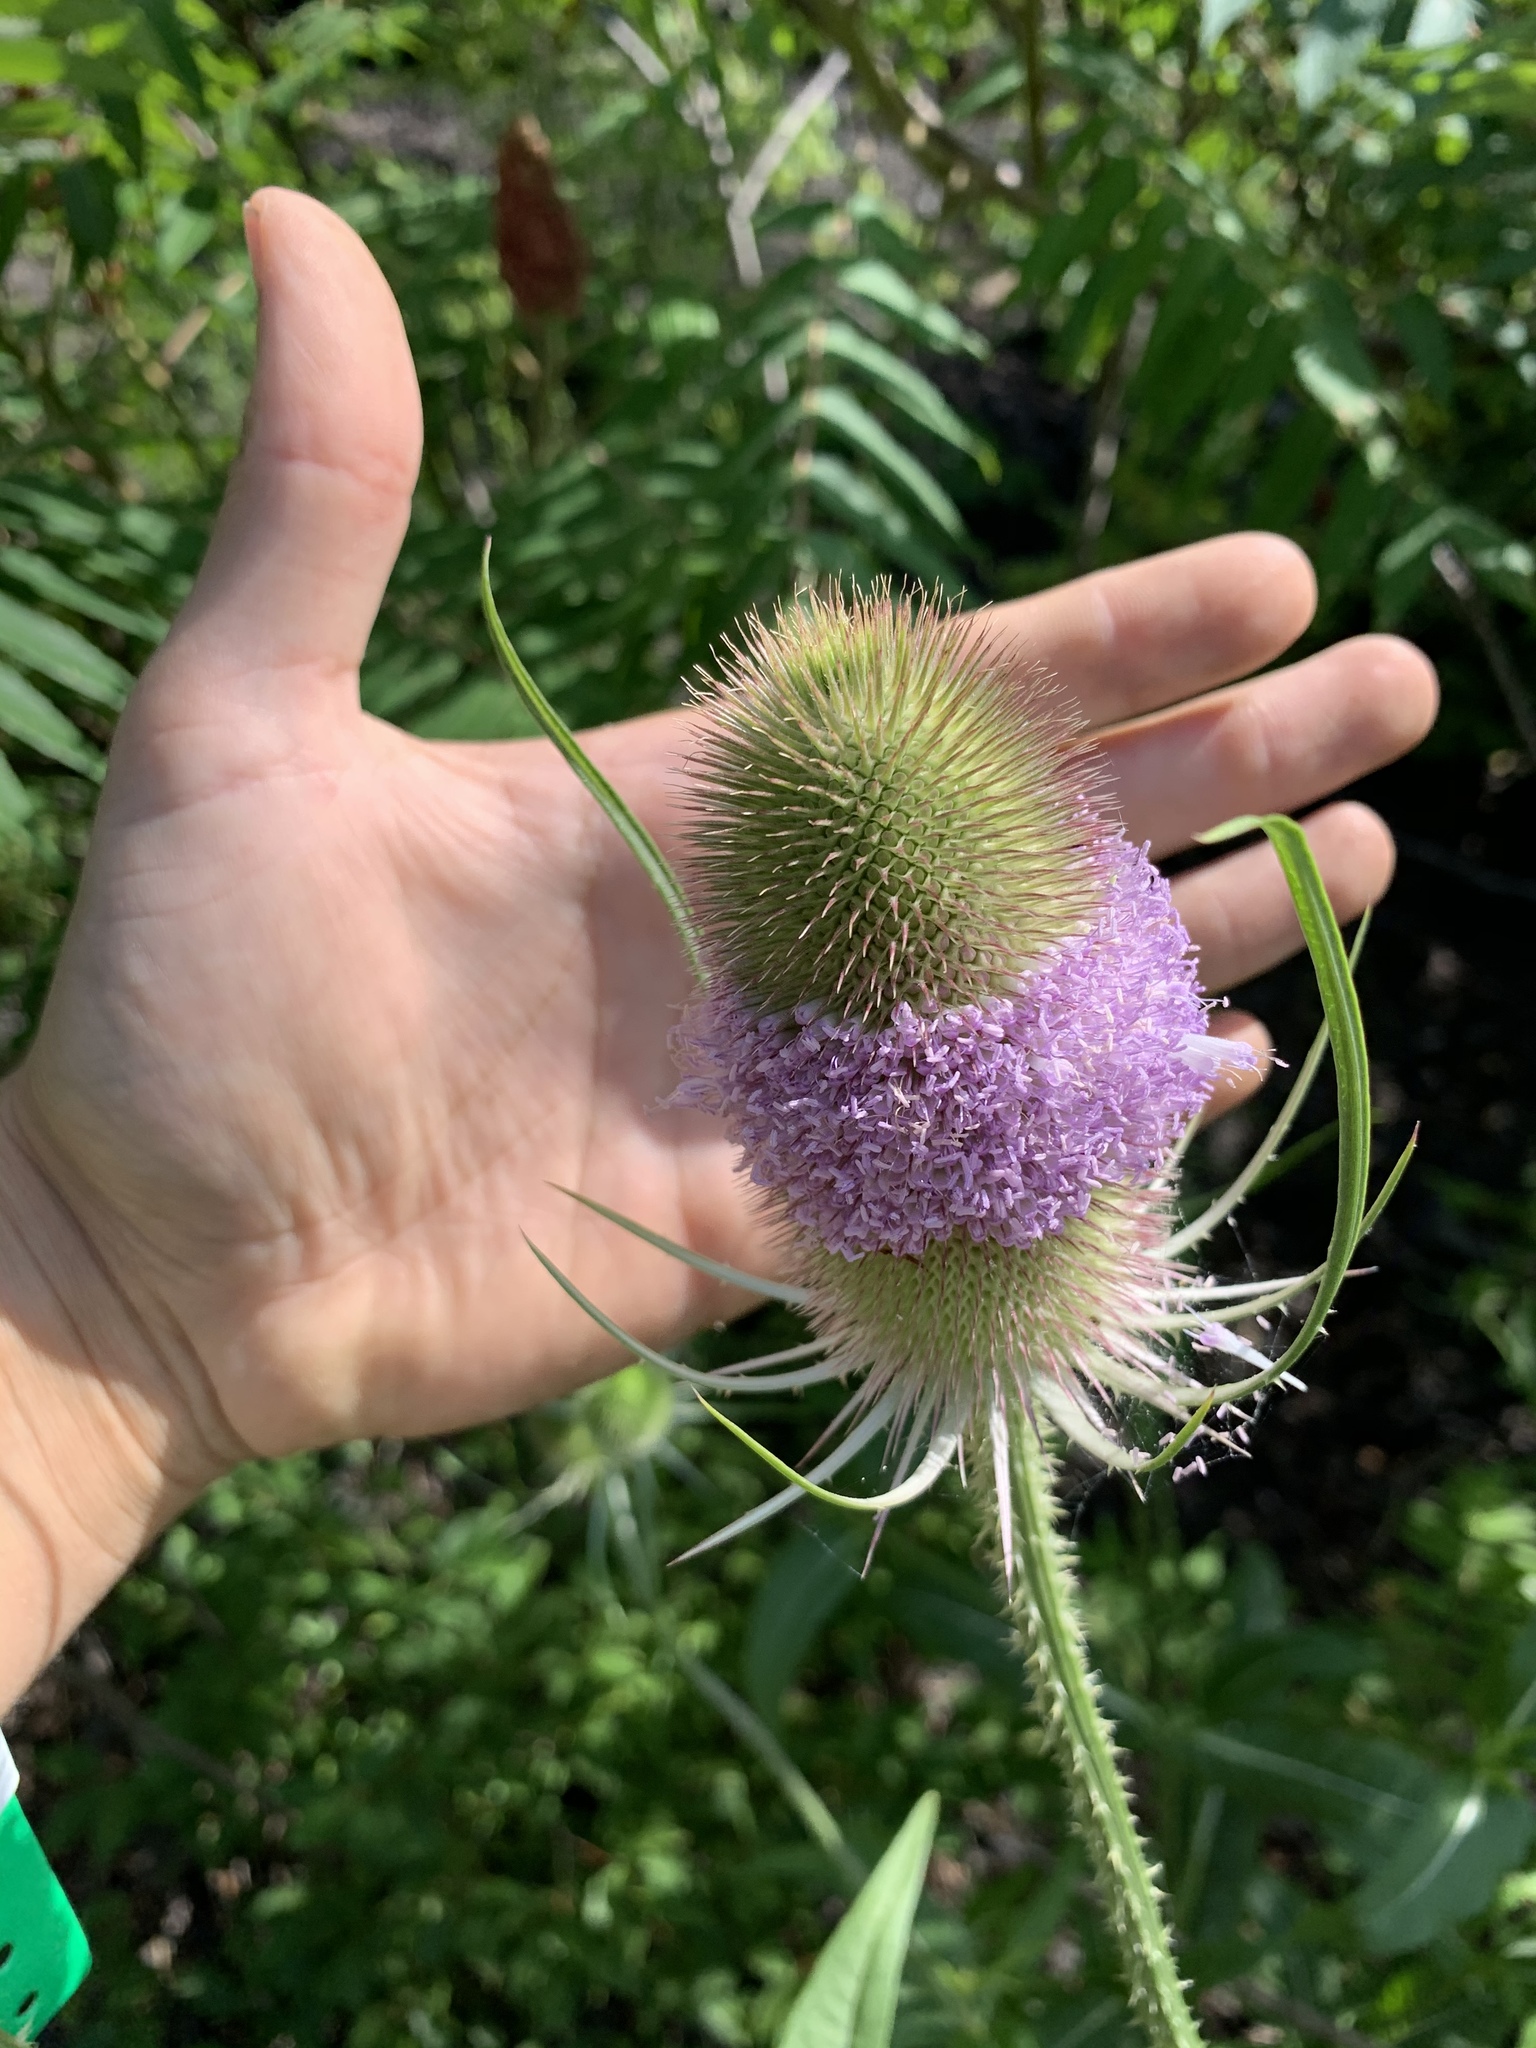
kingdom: Plantae
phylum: Tracheophyta
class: Magnoliopsida
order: Dipsacales
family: Caprifoliaceae
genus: Dipsacus
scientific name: Dipsacus fullonum
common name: Teasel
